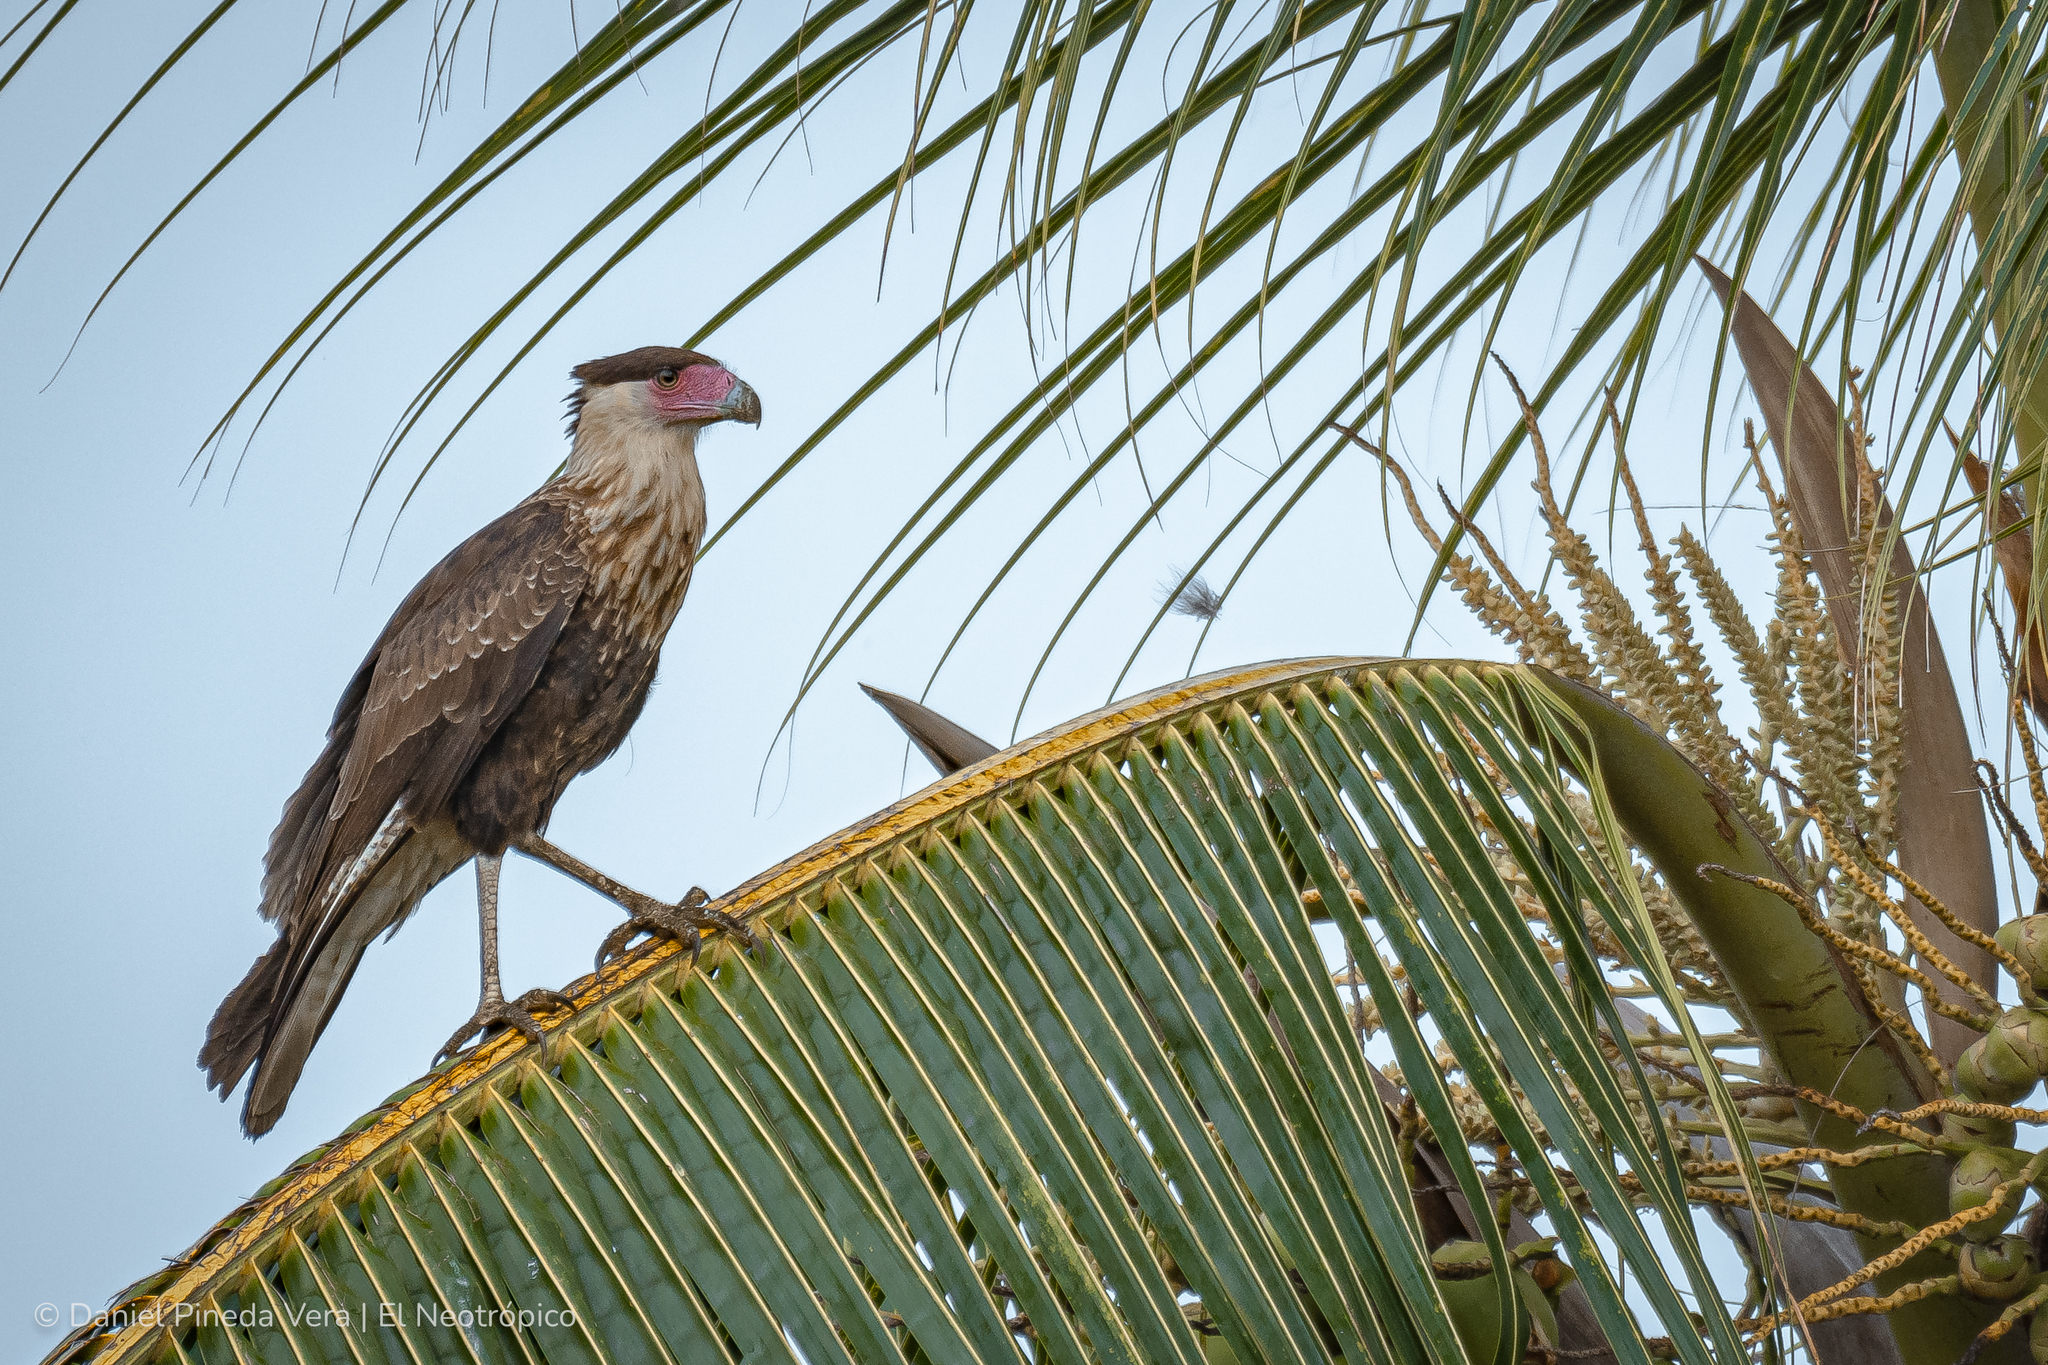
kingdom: Animalia
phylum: Chordata
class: Aves
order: Falconiformes
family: Falconidae
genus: Caracara
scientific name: Caracara plancus
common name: Southern caracara
